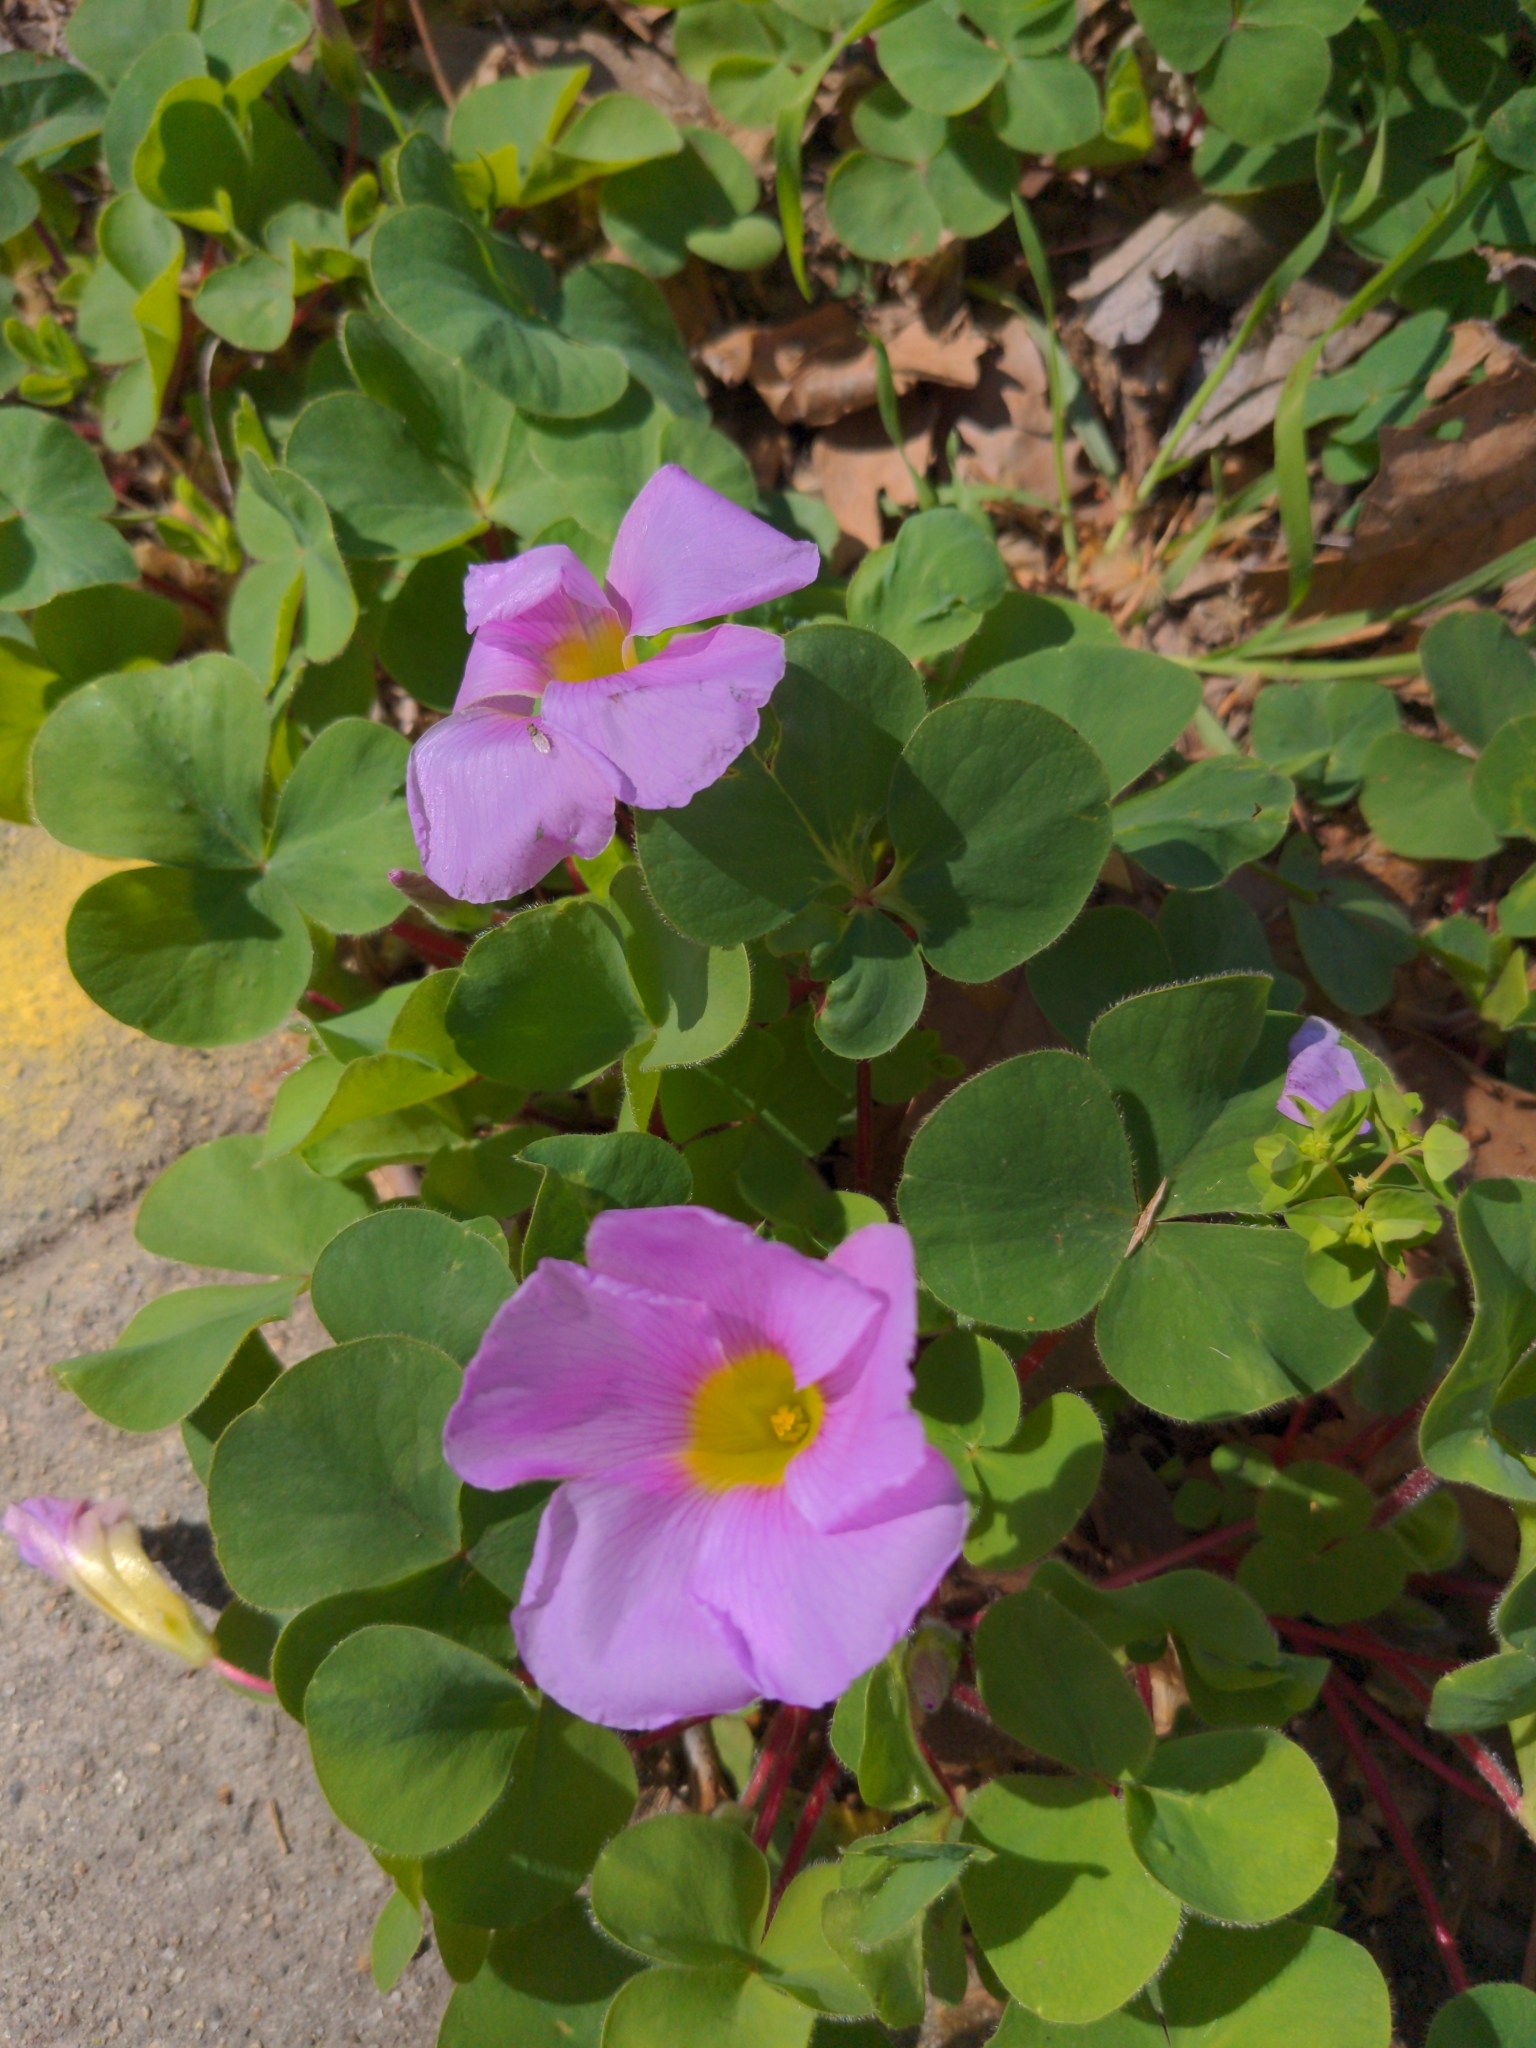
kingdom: Plantae
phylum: Tracheophyta
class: Magnoliopsida
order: Oxalidales
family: Oxalidaceae
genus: Oxalis
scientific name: Oxalis purpurea
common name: Purple woodsorrel
